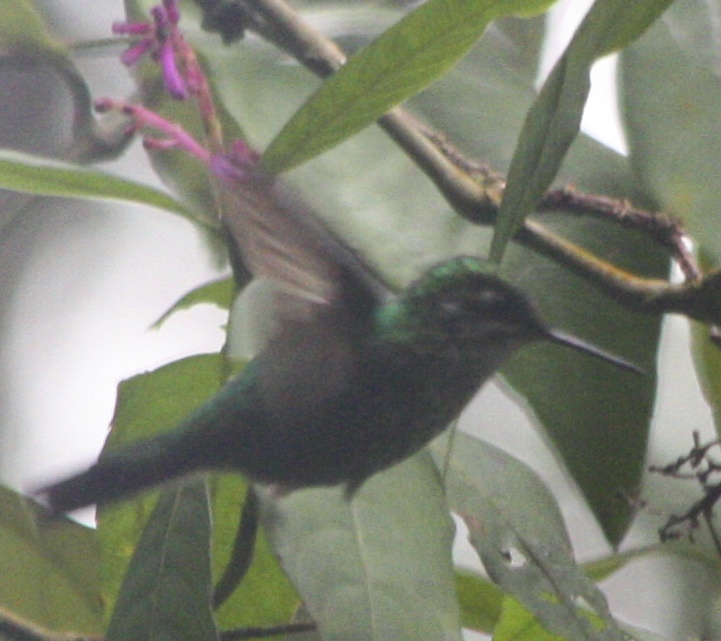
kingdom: Animalia
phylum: Chordata
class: Aves
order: Apodiformes
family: Trochilidae
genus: Aglaiocercus
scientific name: Aglaiocercus kingii
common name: Long-tailed sylph
